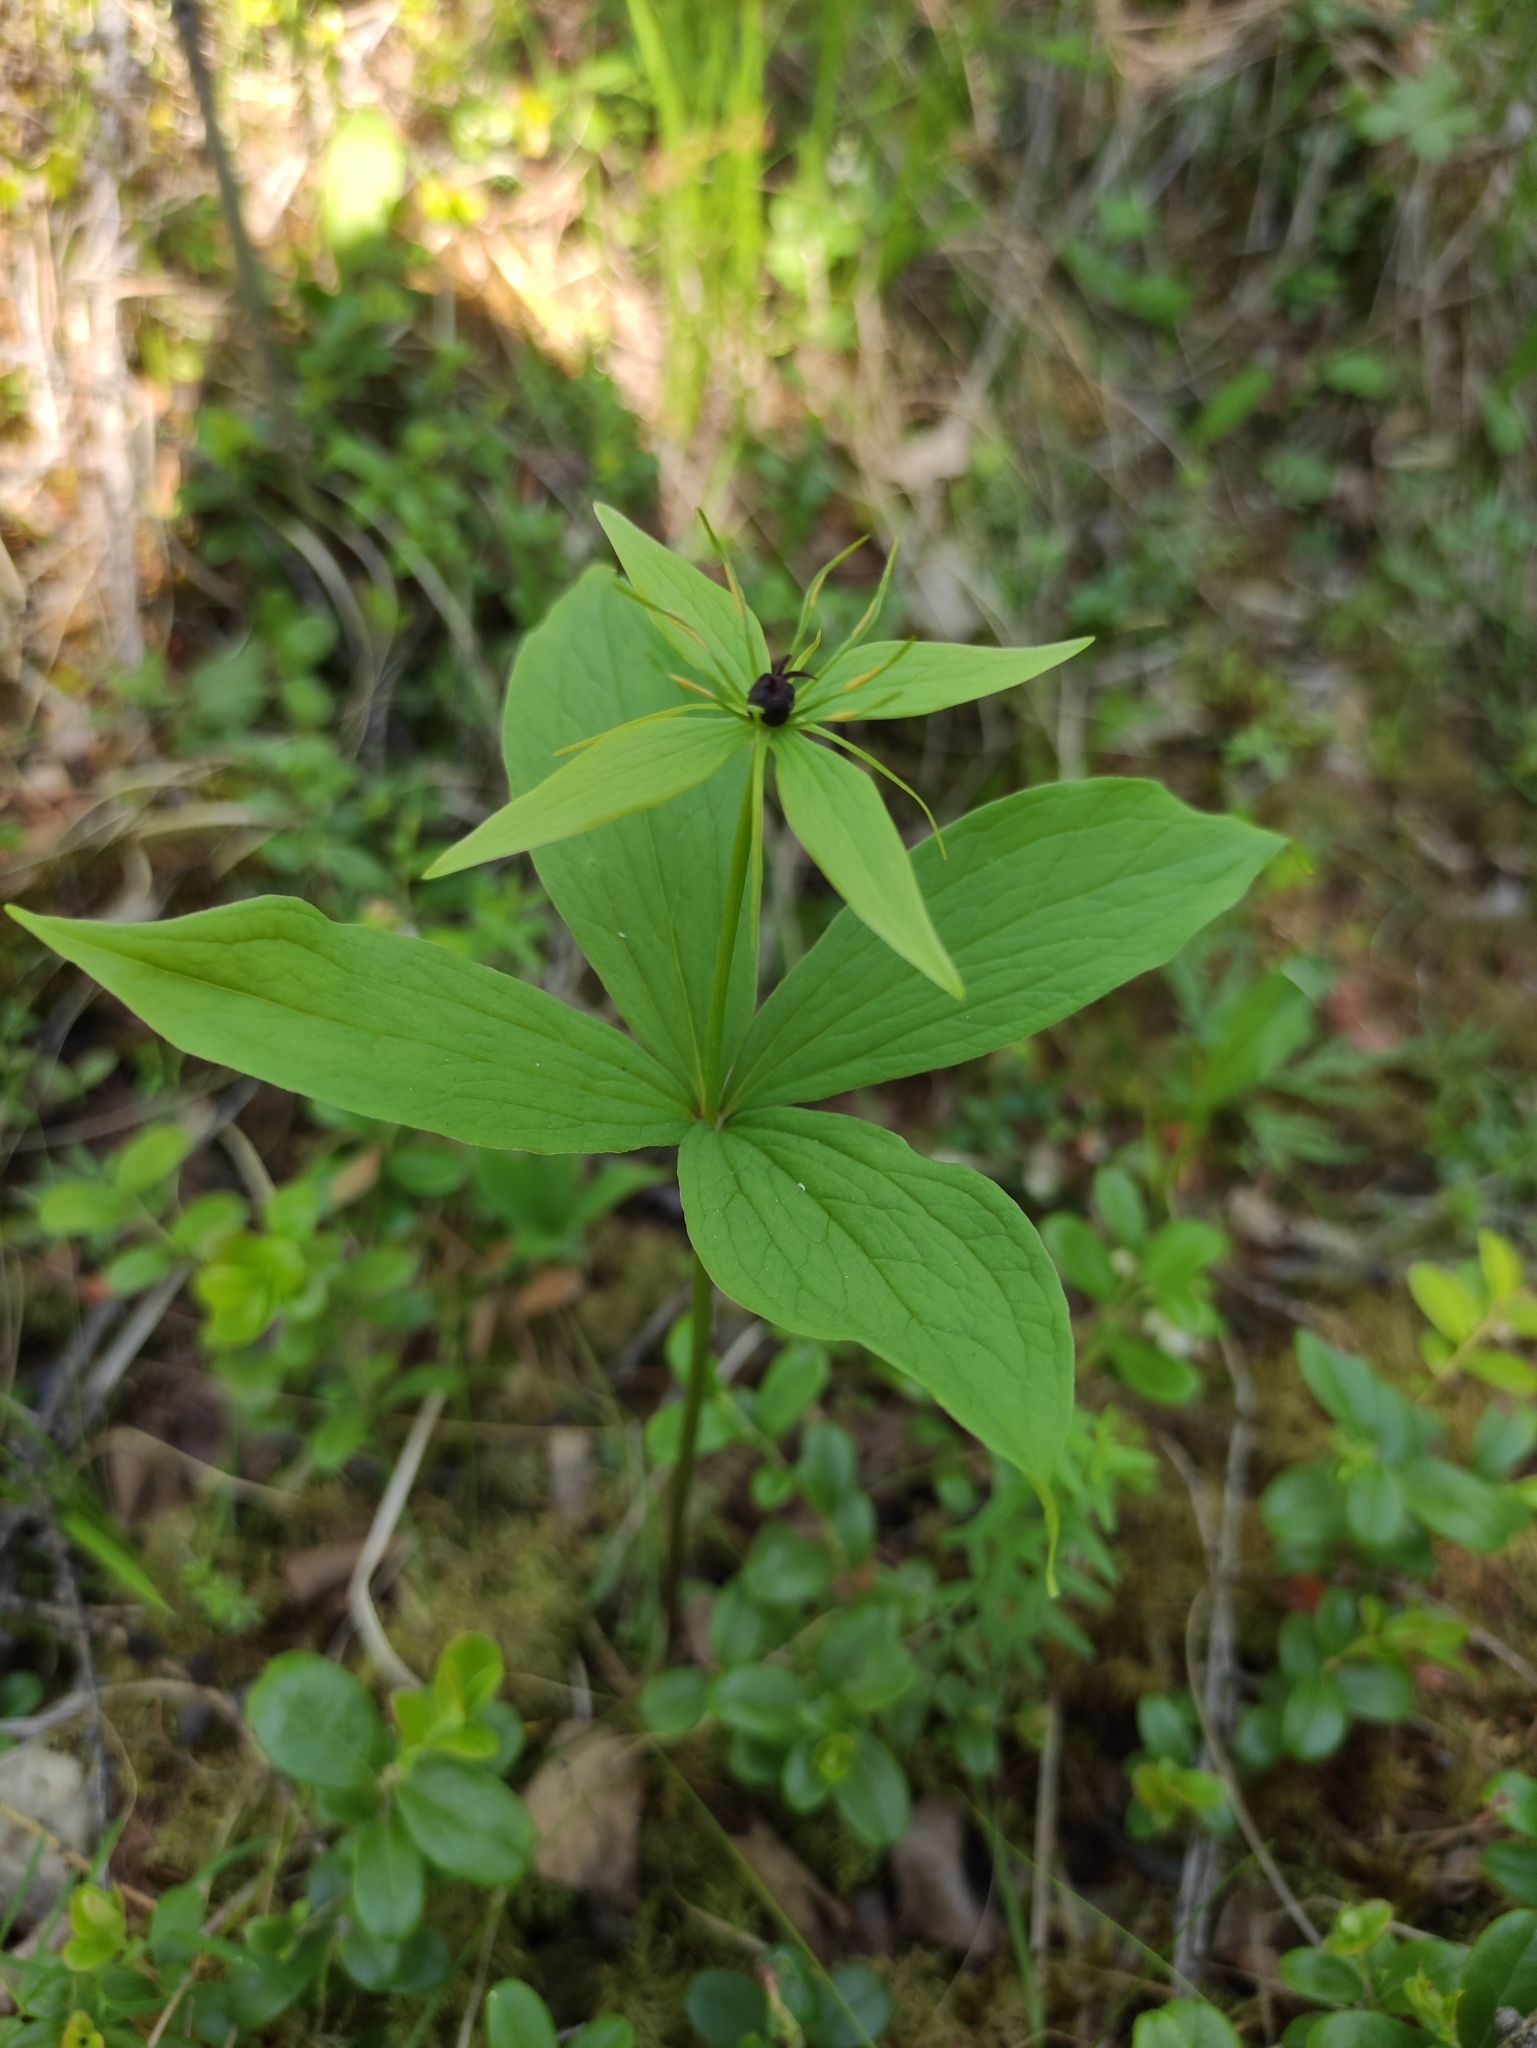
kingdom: Plantae
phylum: Tracheophyta
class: Liliopsida
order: Liliales
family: Melanthiaceae
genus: Paris
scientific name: Paris quadrifolia
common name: Herb-paris
